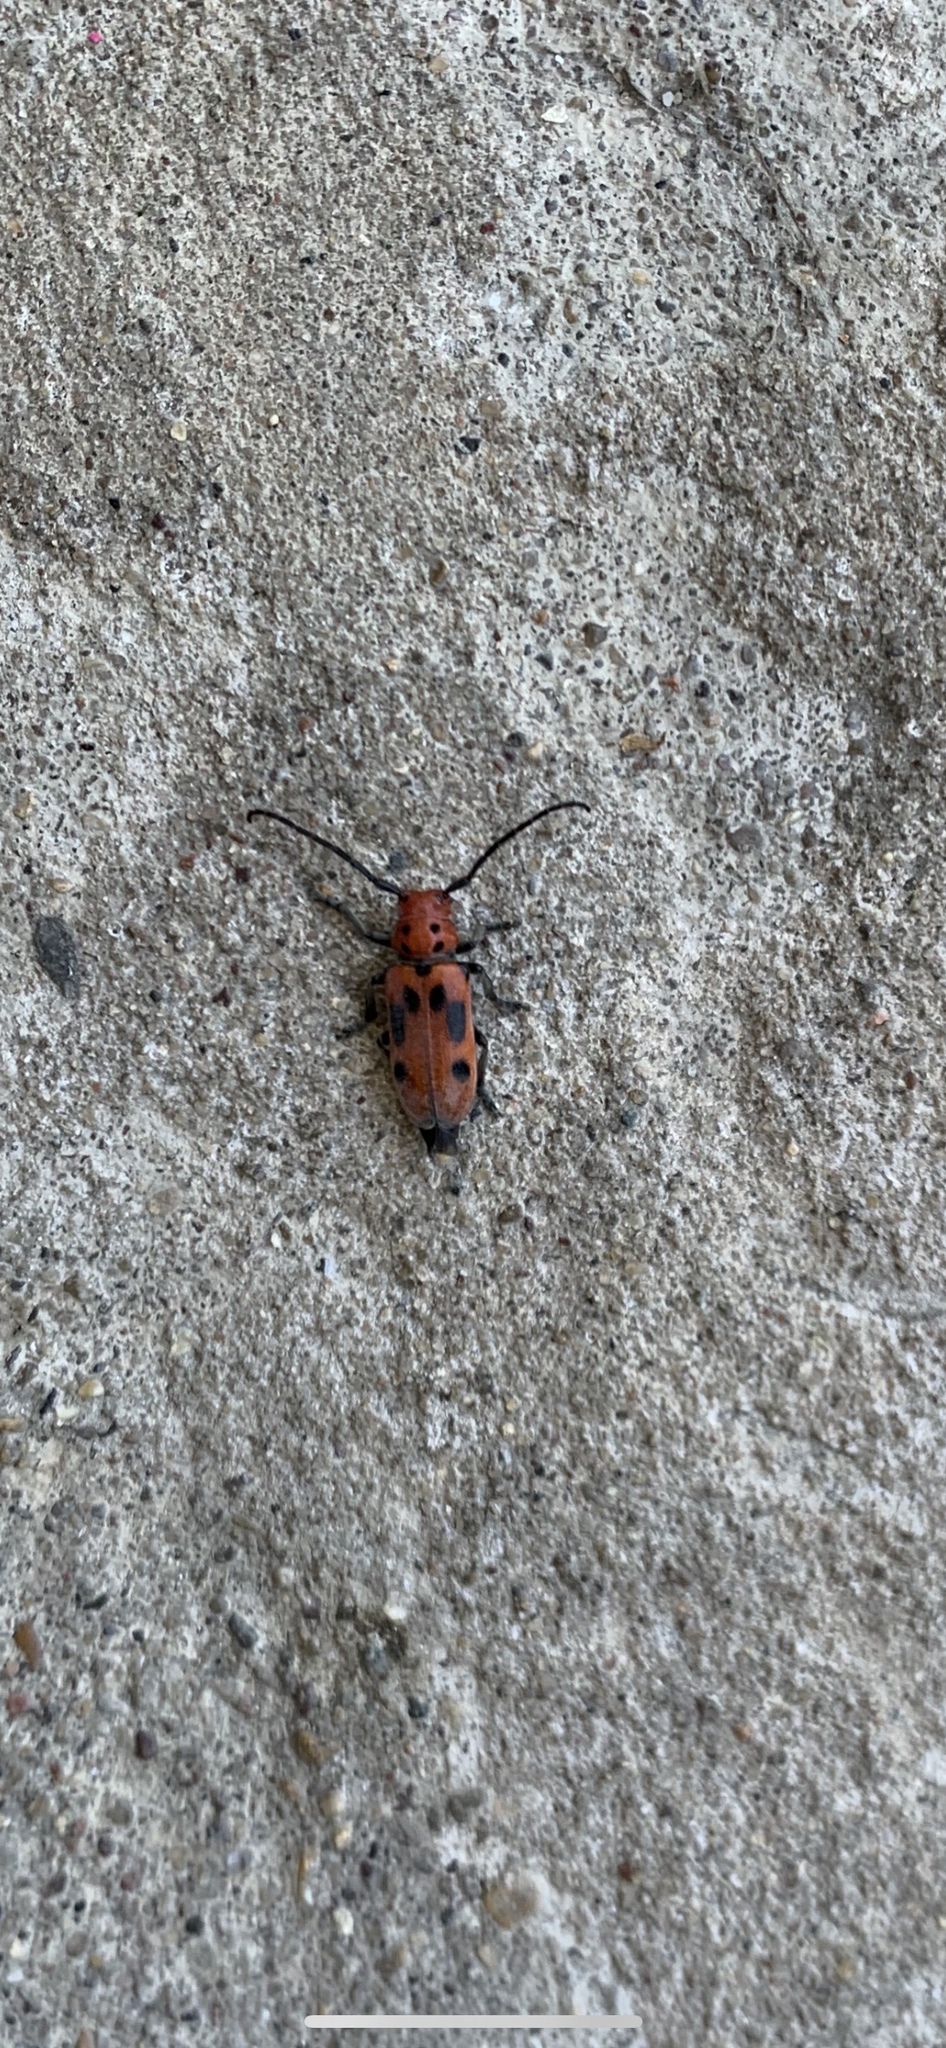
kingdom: Animalia
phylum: Arthropoda
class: Insecta
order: Coleoptera
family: Cerambycidae
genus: Tetraopes
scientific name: Tetraopes tetrophthalmus
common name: Red milkweed beetle
